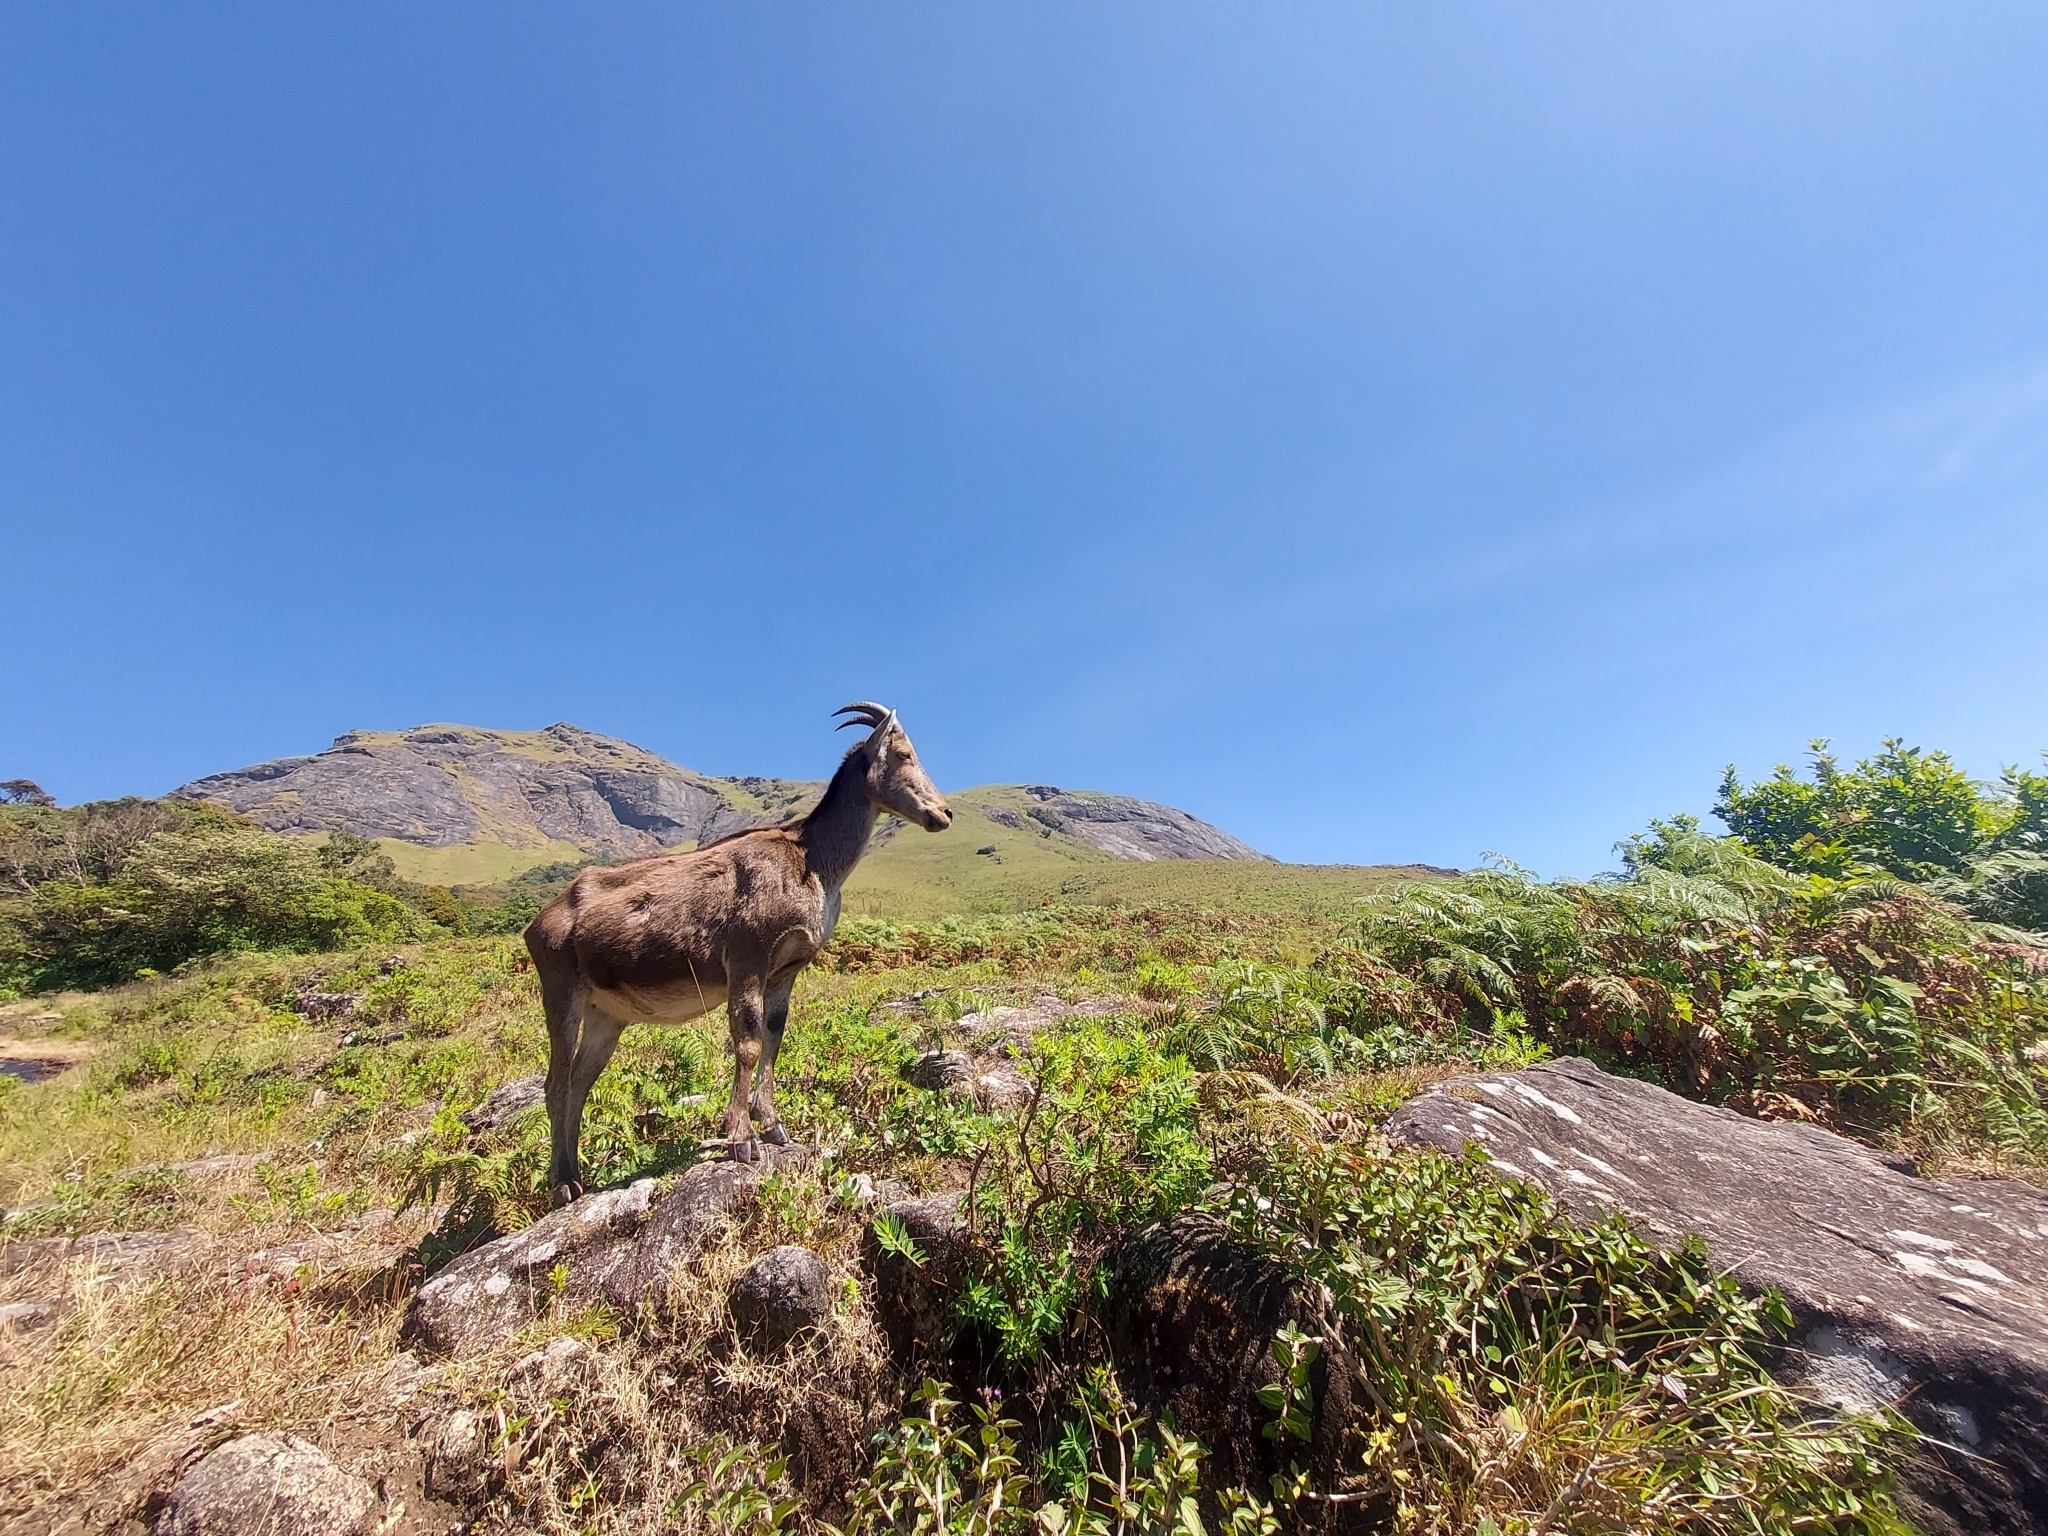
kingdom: Animalia
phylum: Chordata
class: Mammalia
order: Artiodactyla
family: Bovidae
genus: Hemitragus
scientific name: Hemitragus hylocrius
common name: Nilgiri tahr
